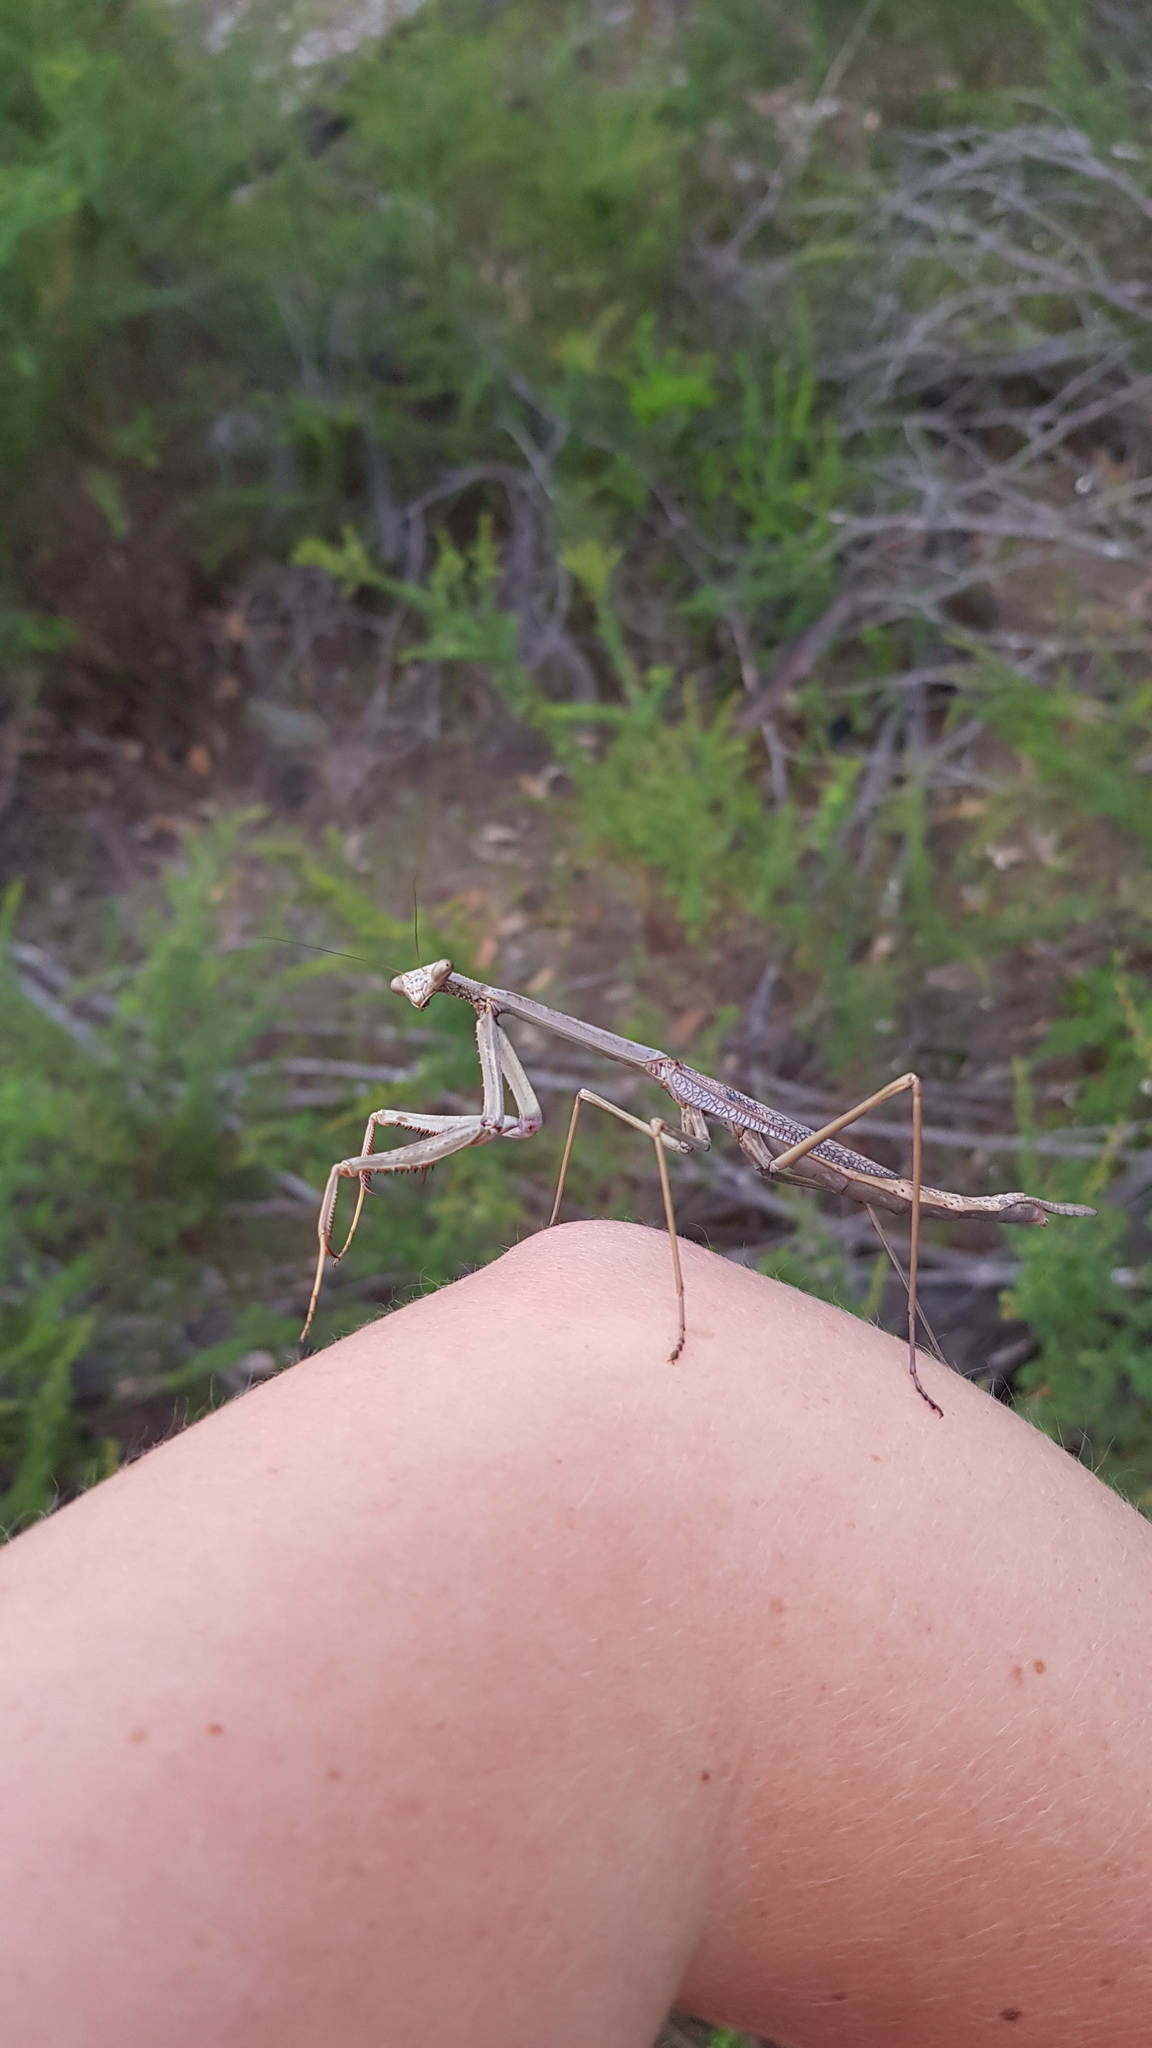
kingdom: Animalia
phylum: Arthropoda
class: Insecta
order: Mantodea
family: Mantidae
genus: Archimantis
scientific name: Archimantis latistyla
